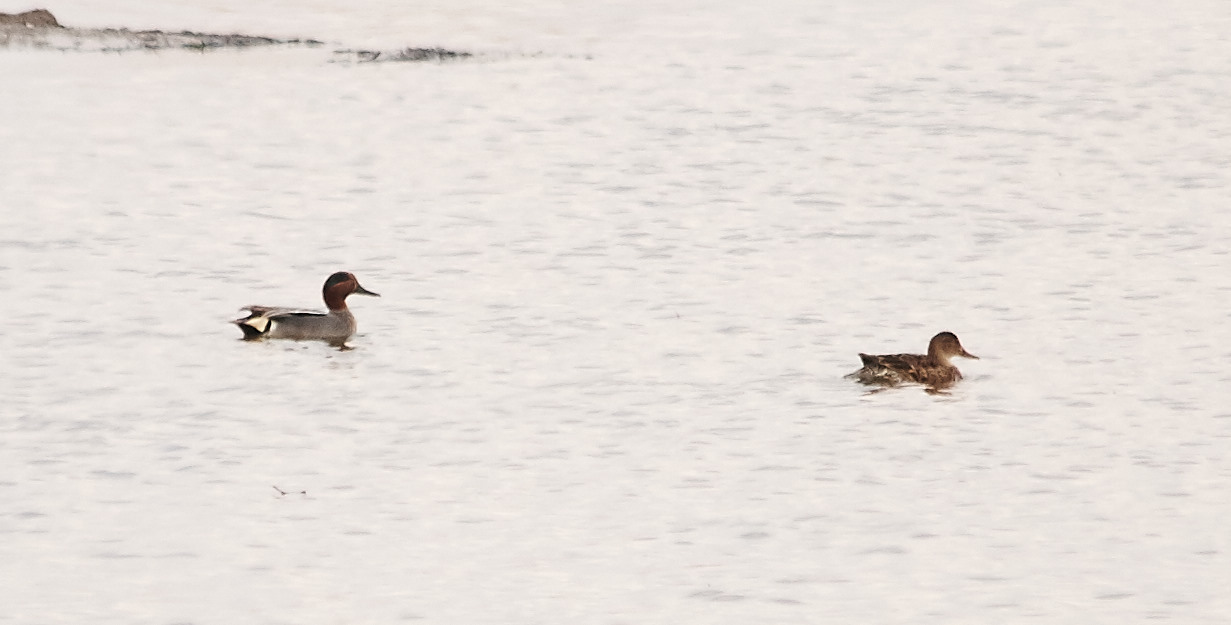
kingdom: Animalia
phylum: Chordata
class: Aves
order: Anseriformes
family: Anatidae
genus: Anas
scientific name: Anas crecca
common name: Eurasian teal
